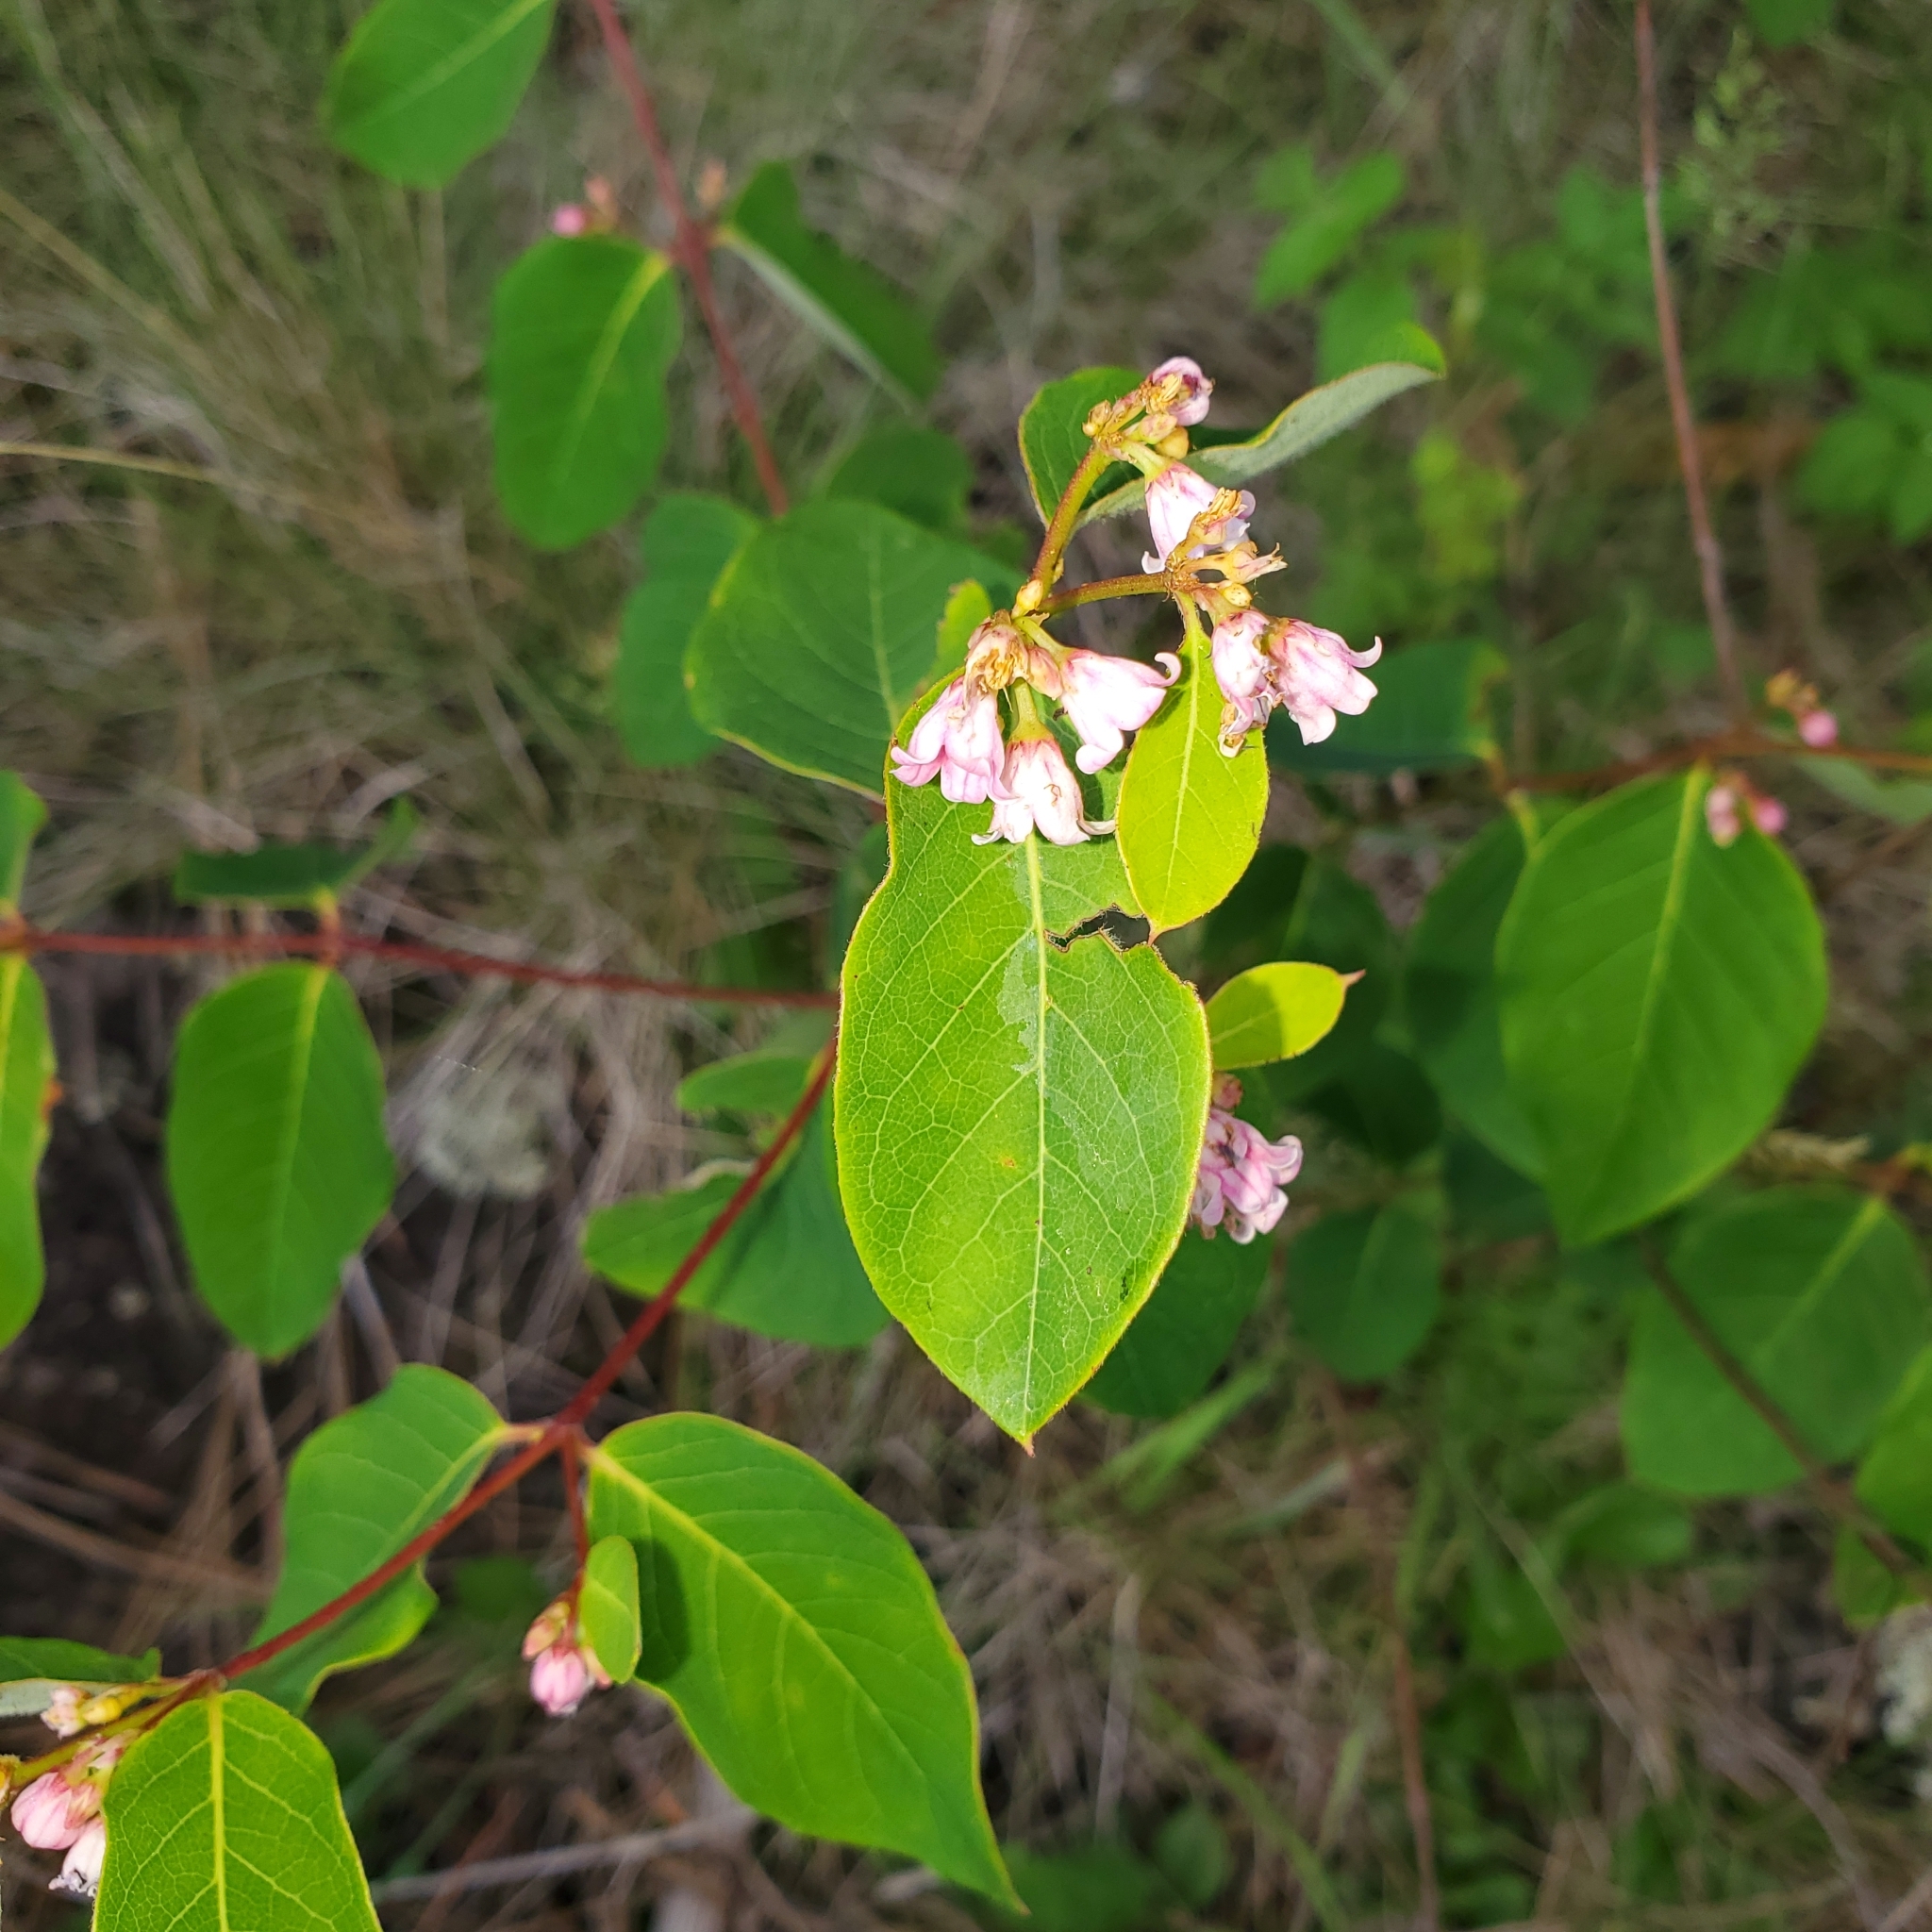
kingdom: Plantae
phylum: Tracheophyta
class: Magnoliopsida
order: Gentianales
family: Apocynaceae
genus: Apocynum
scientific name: Apocynum androsaemifolium
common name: Spreading dogbane
